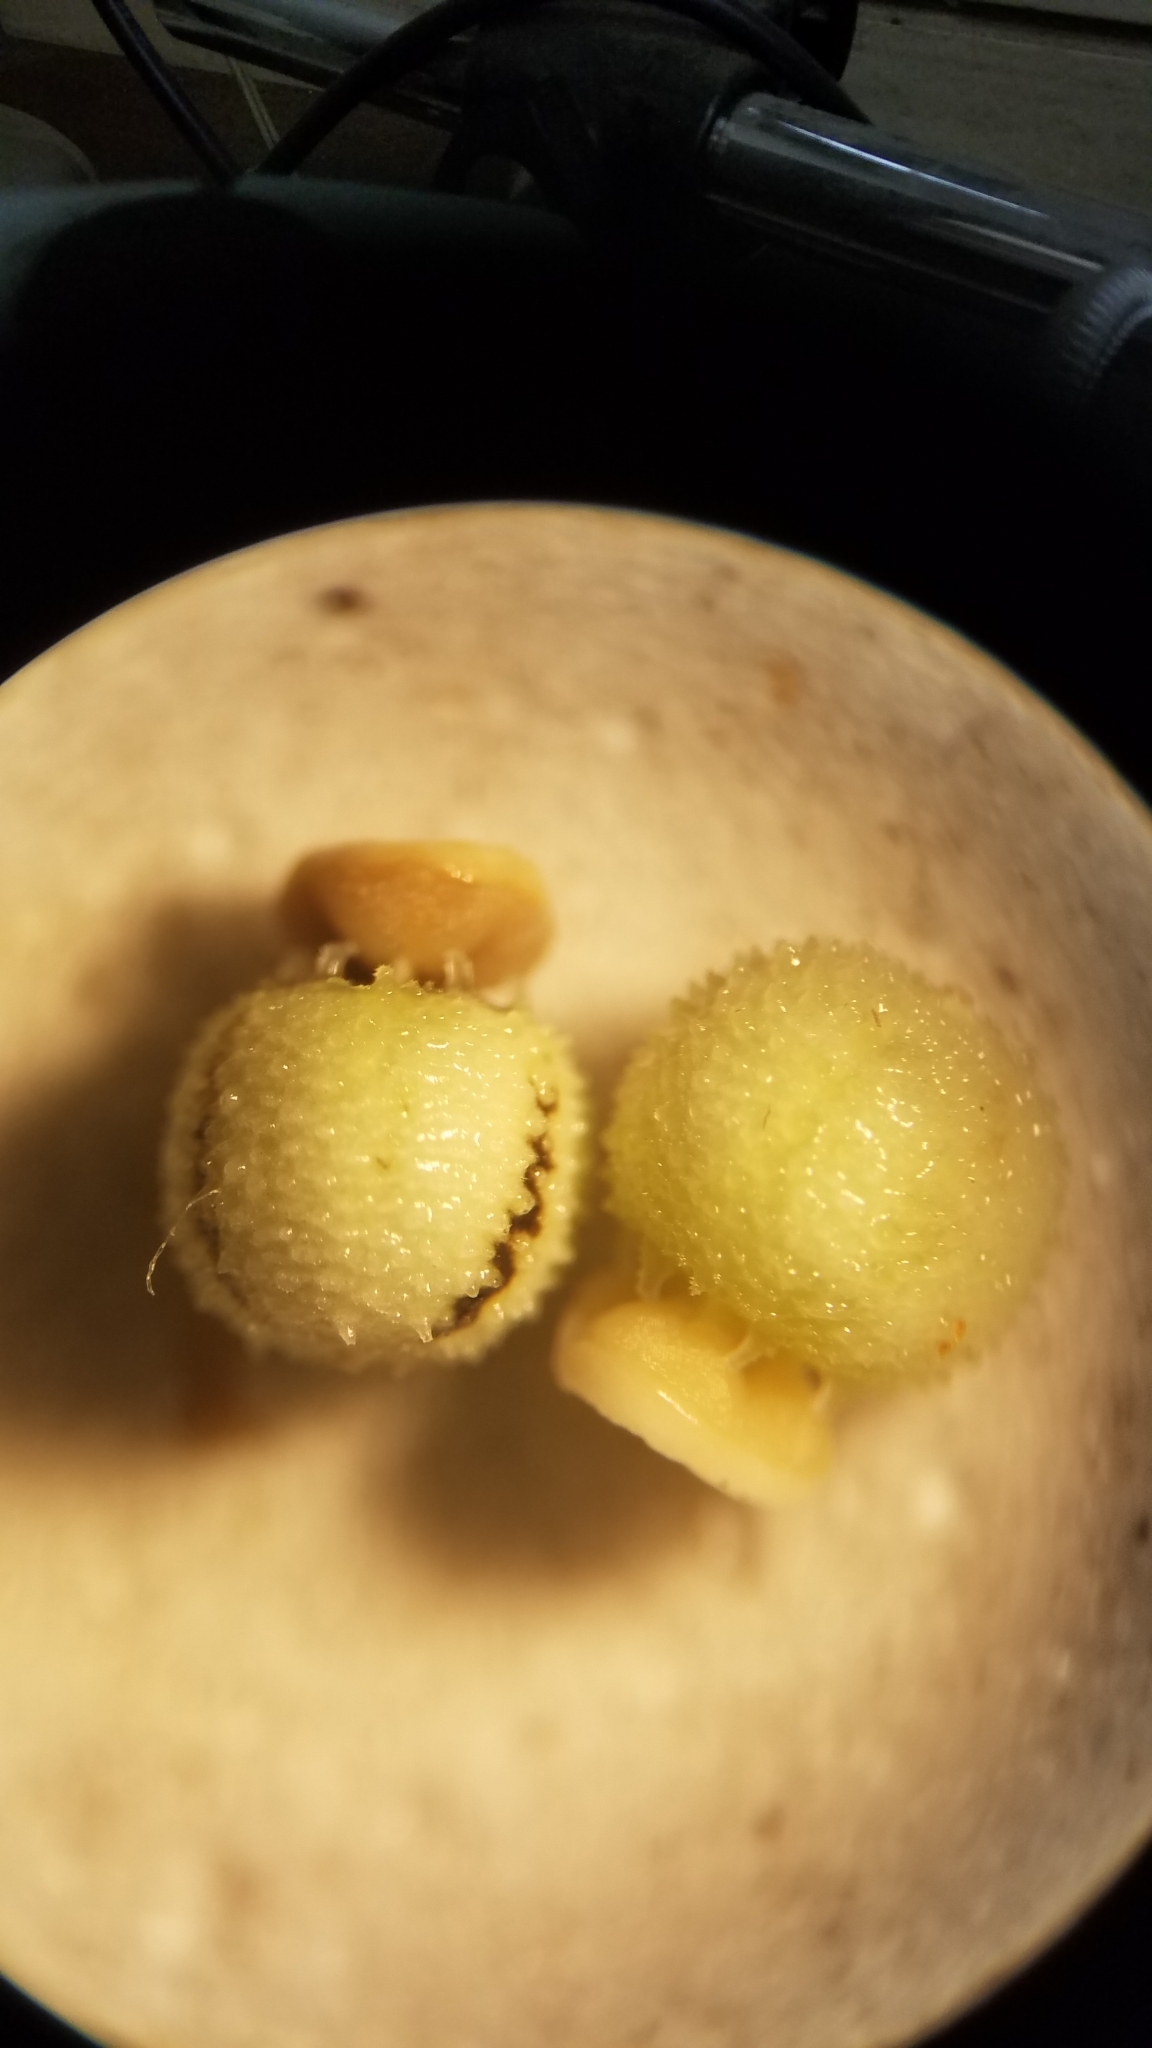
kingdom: Plantae
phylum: Tracheophyta
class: Liliopsida
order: Poales
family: Cyperaceae
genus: Scleria
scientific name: Scleria ciliata
